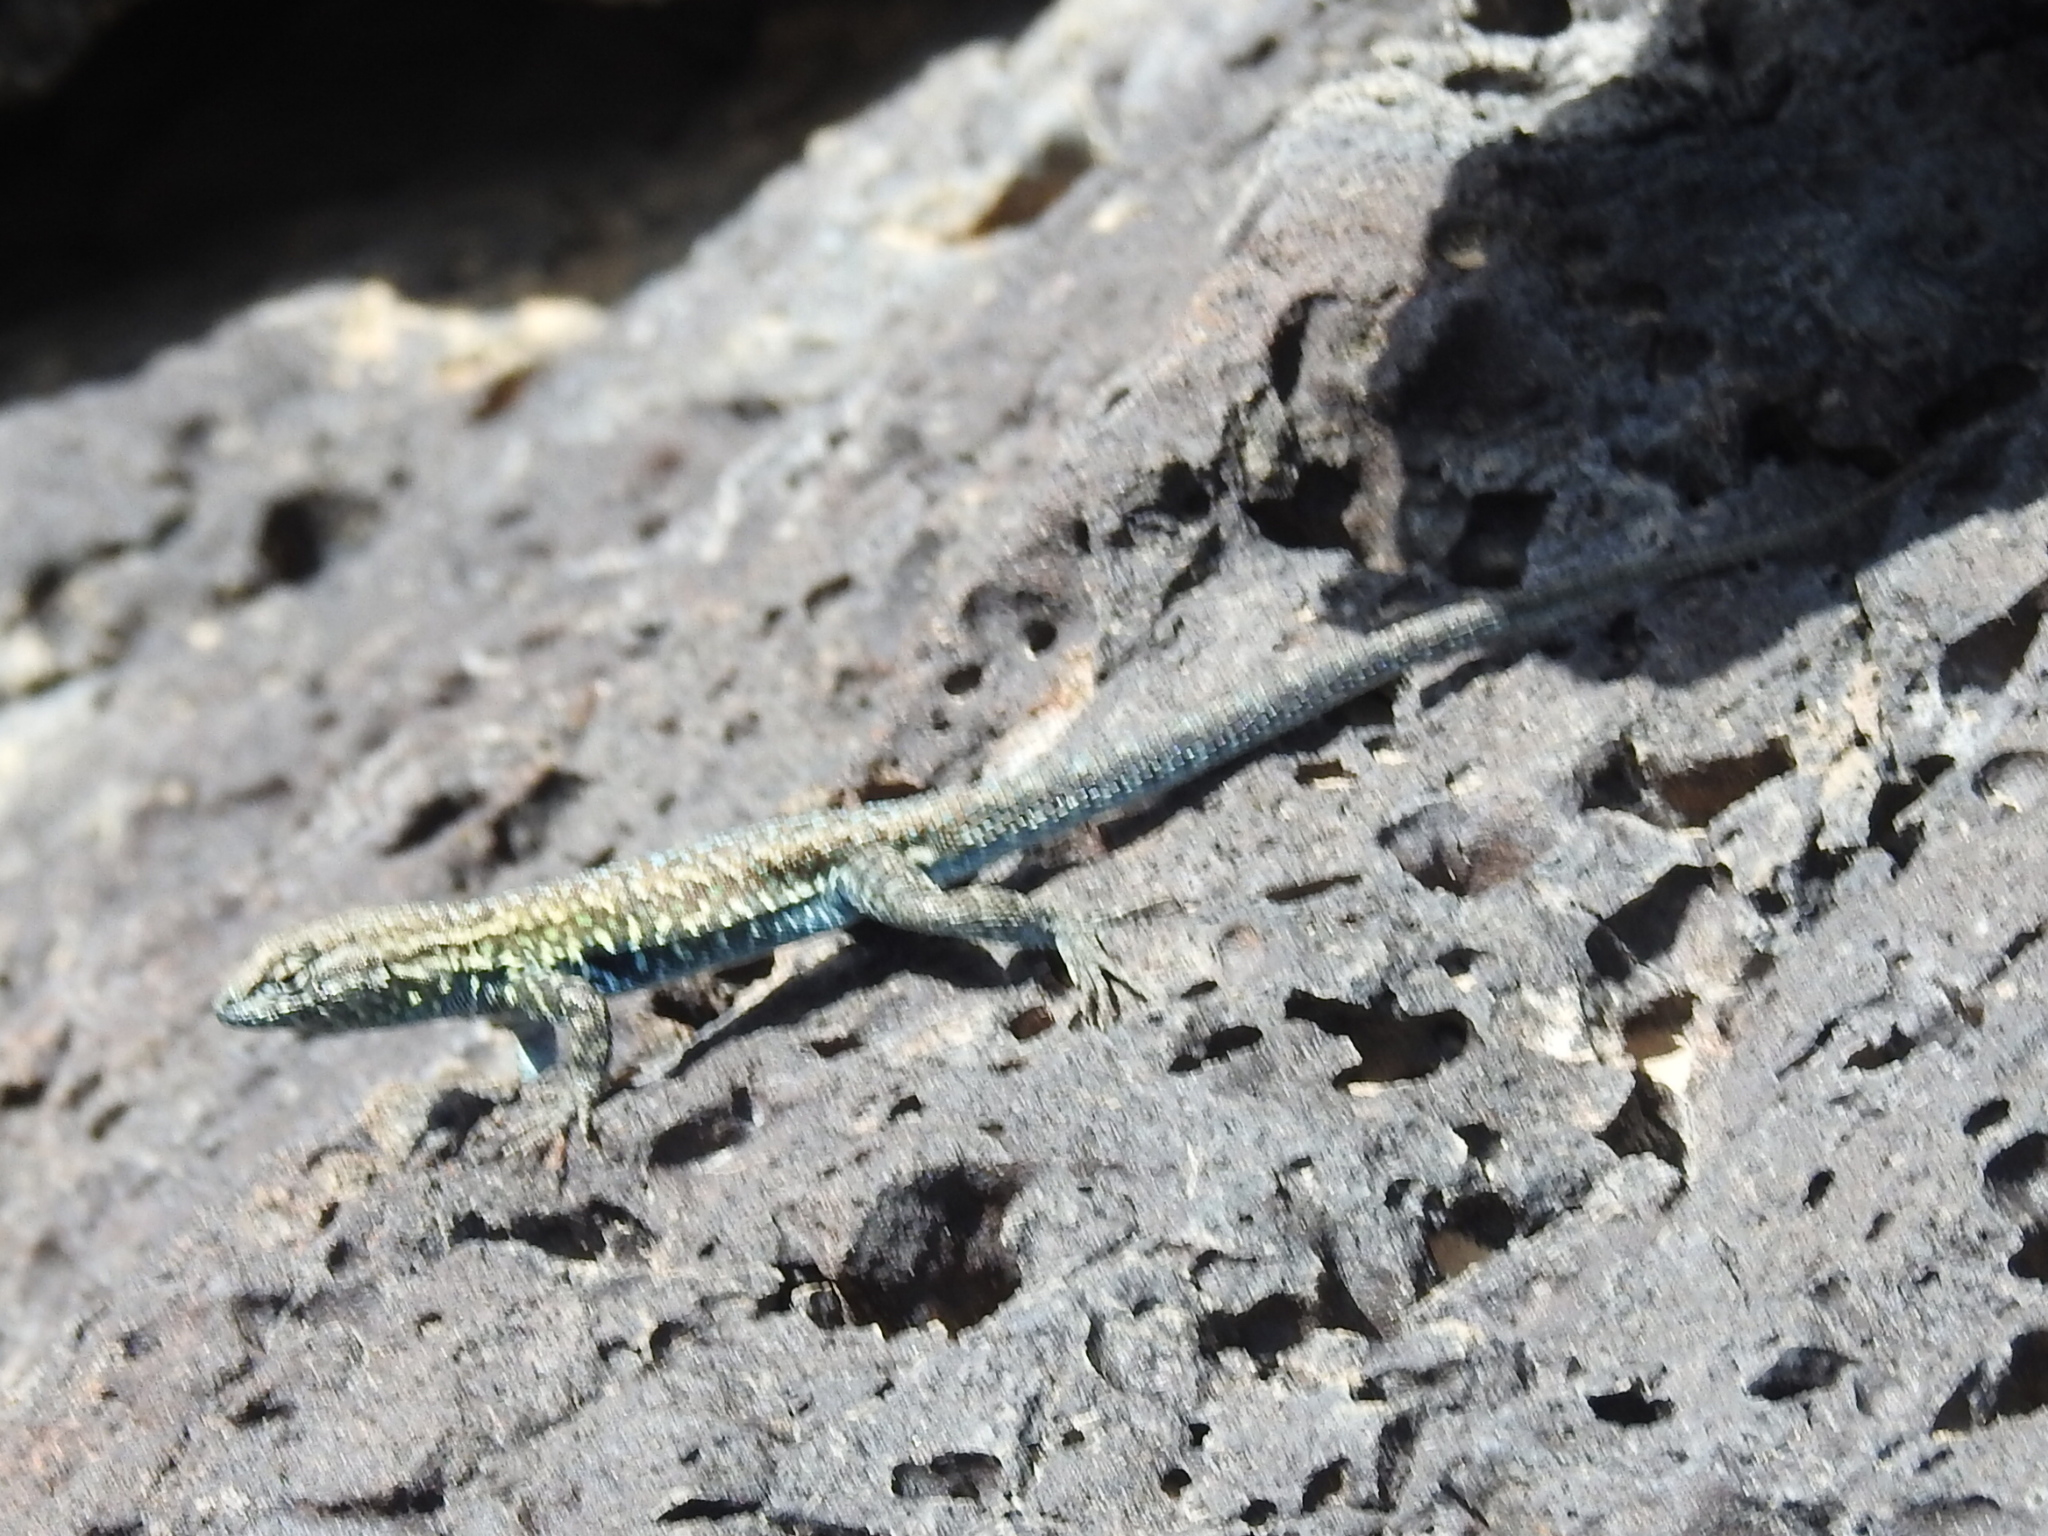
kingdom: Animalia
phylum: Chordata
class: Squamata
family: Phrynosomatidae
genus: Uta
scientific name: Uta stansburiana
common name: Side-blotched lizard
